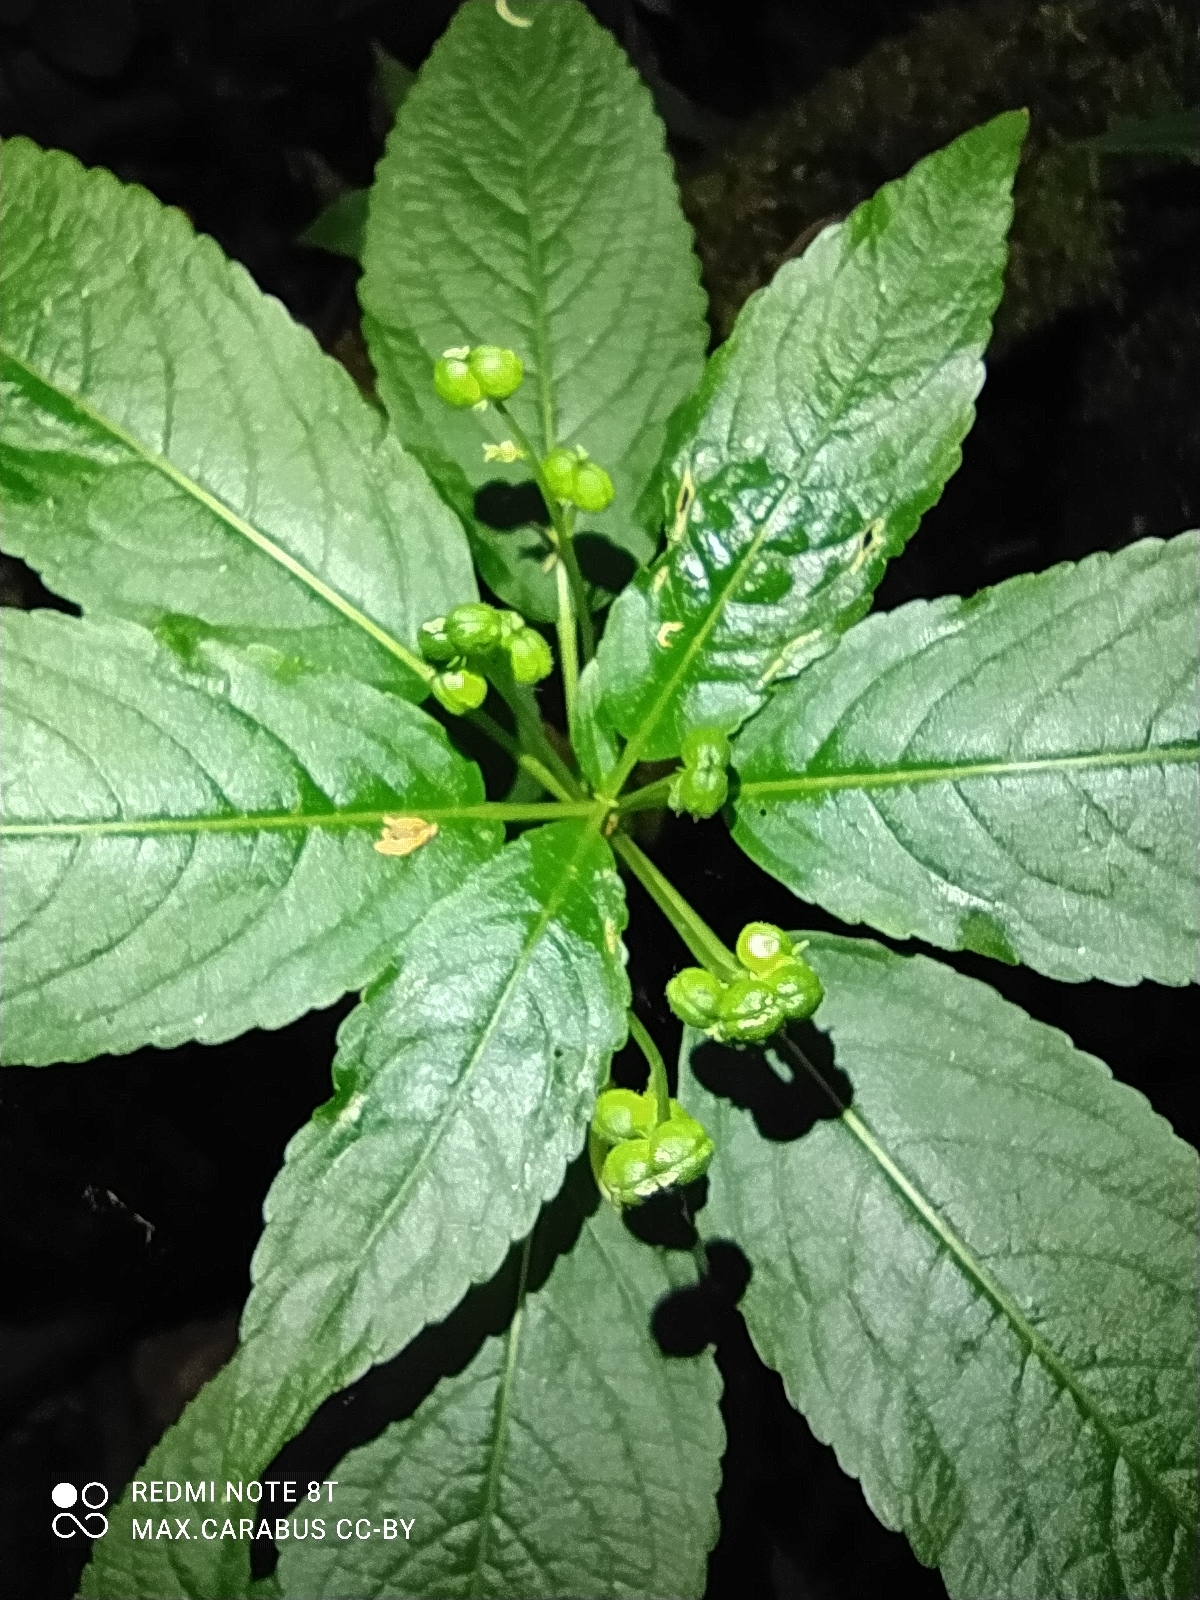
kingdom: Plantae
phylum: Tracheophyta
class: Magnoliopsida
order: Malpighiales
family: Euphorbiaceae
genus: Mercurialis
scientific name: Mercurialis perennis
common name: Dog mercury
